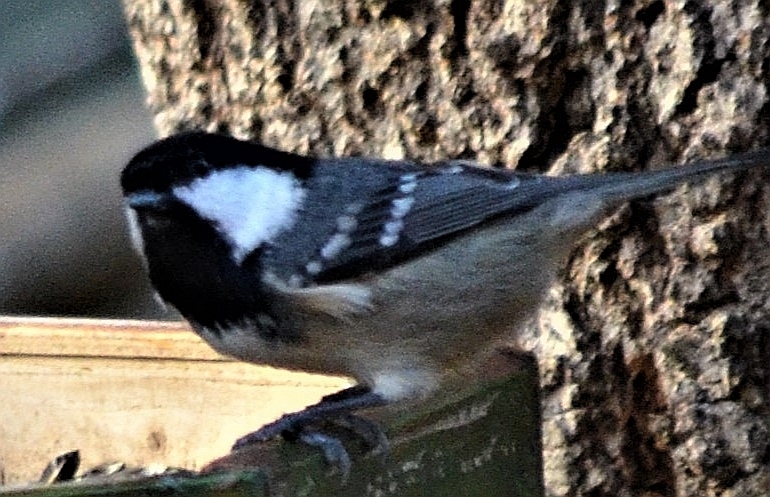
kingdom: Animalia
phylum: Chordata
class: Aves
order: Passeriformes
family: Paridae
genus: Periparus
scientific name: Periparus ater
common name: Coal tit
